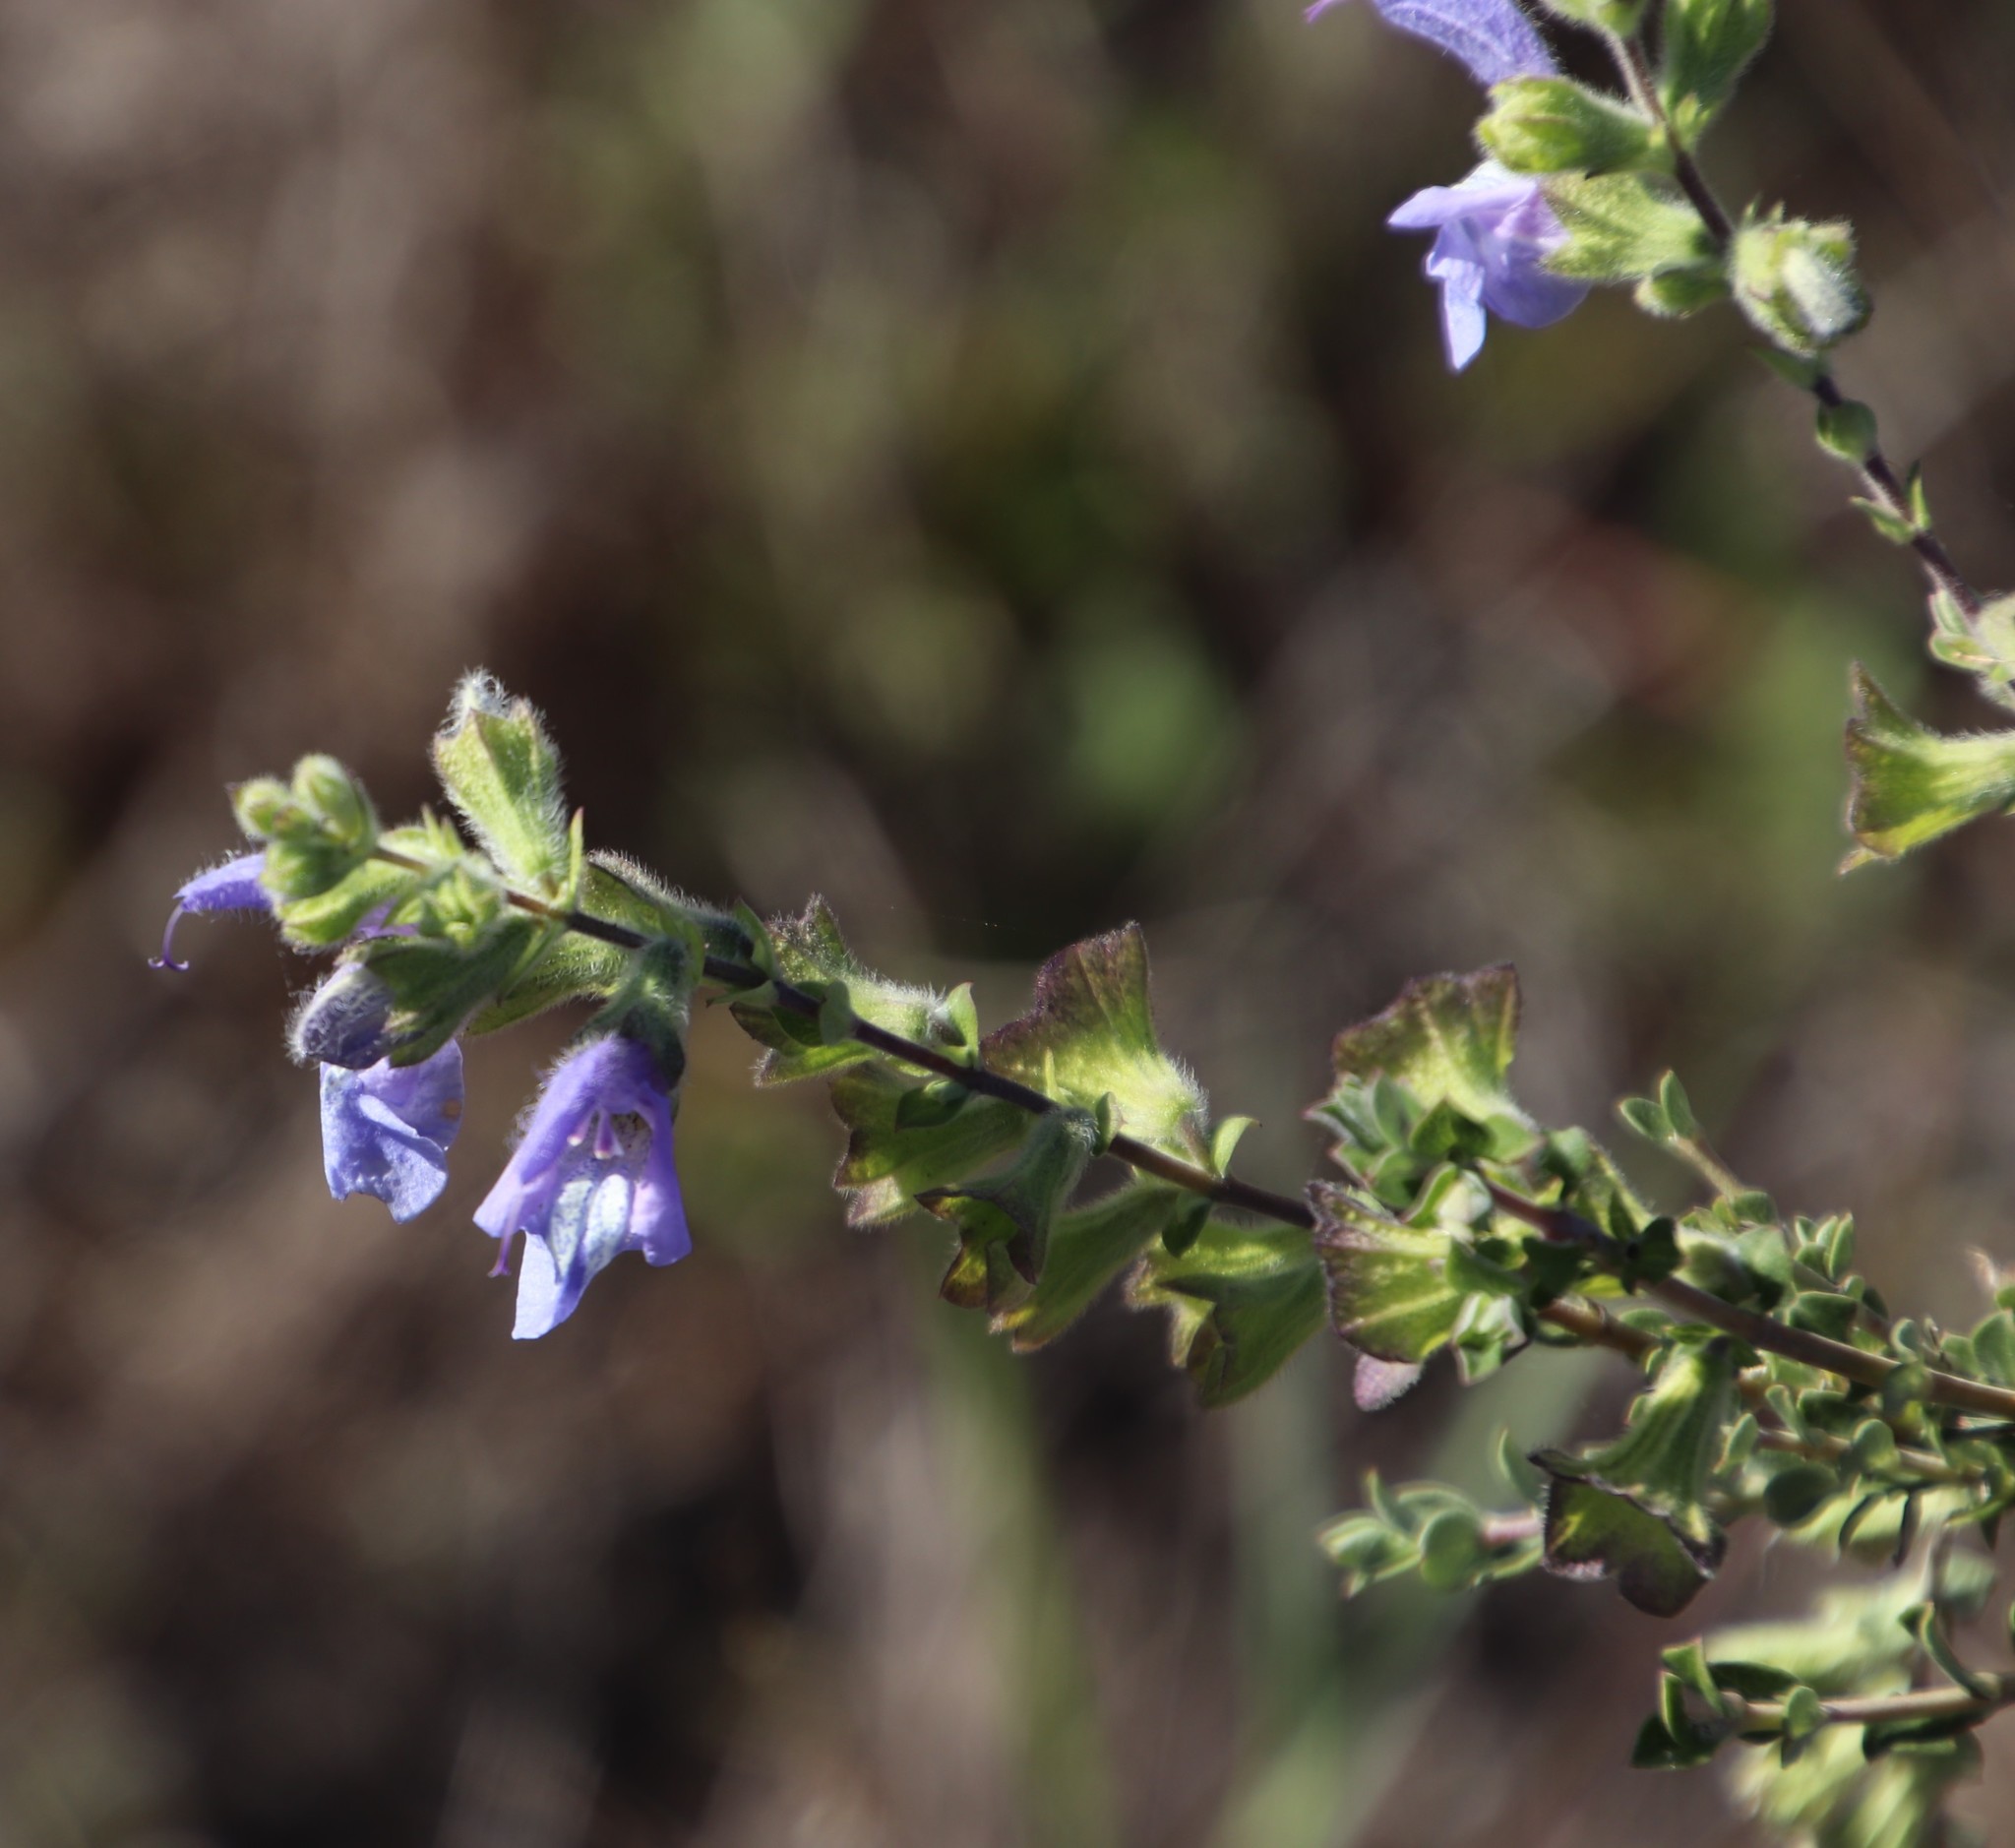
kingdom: Plantae
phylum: Tracheophyta
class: Magnoliopsida
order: Lamiales
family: Lamiaceae
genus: Salvia
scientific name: Salvia africana
